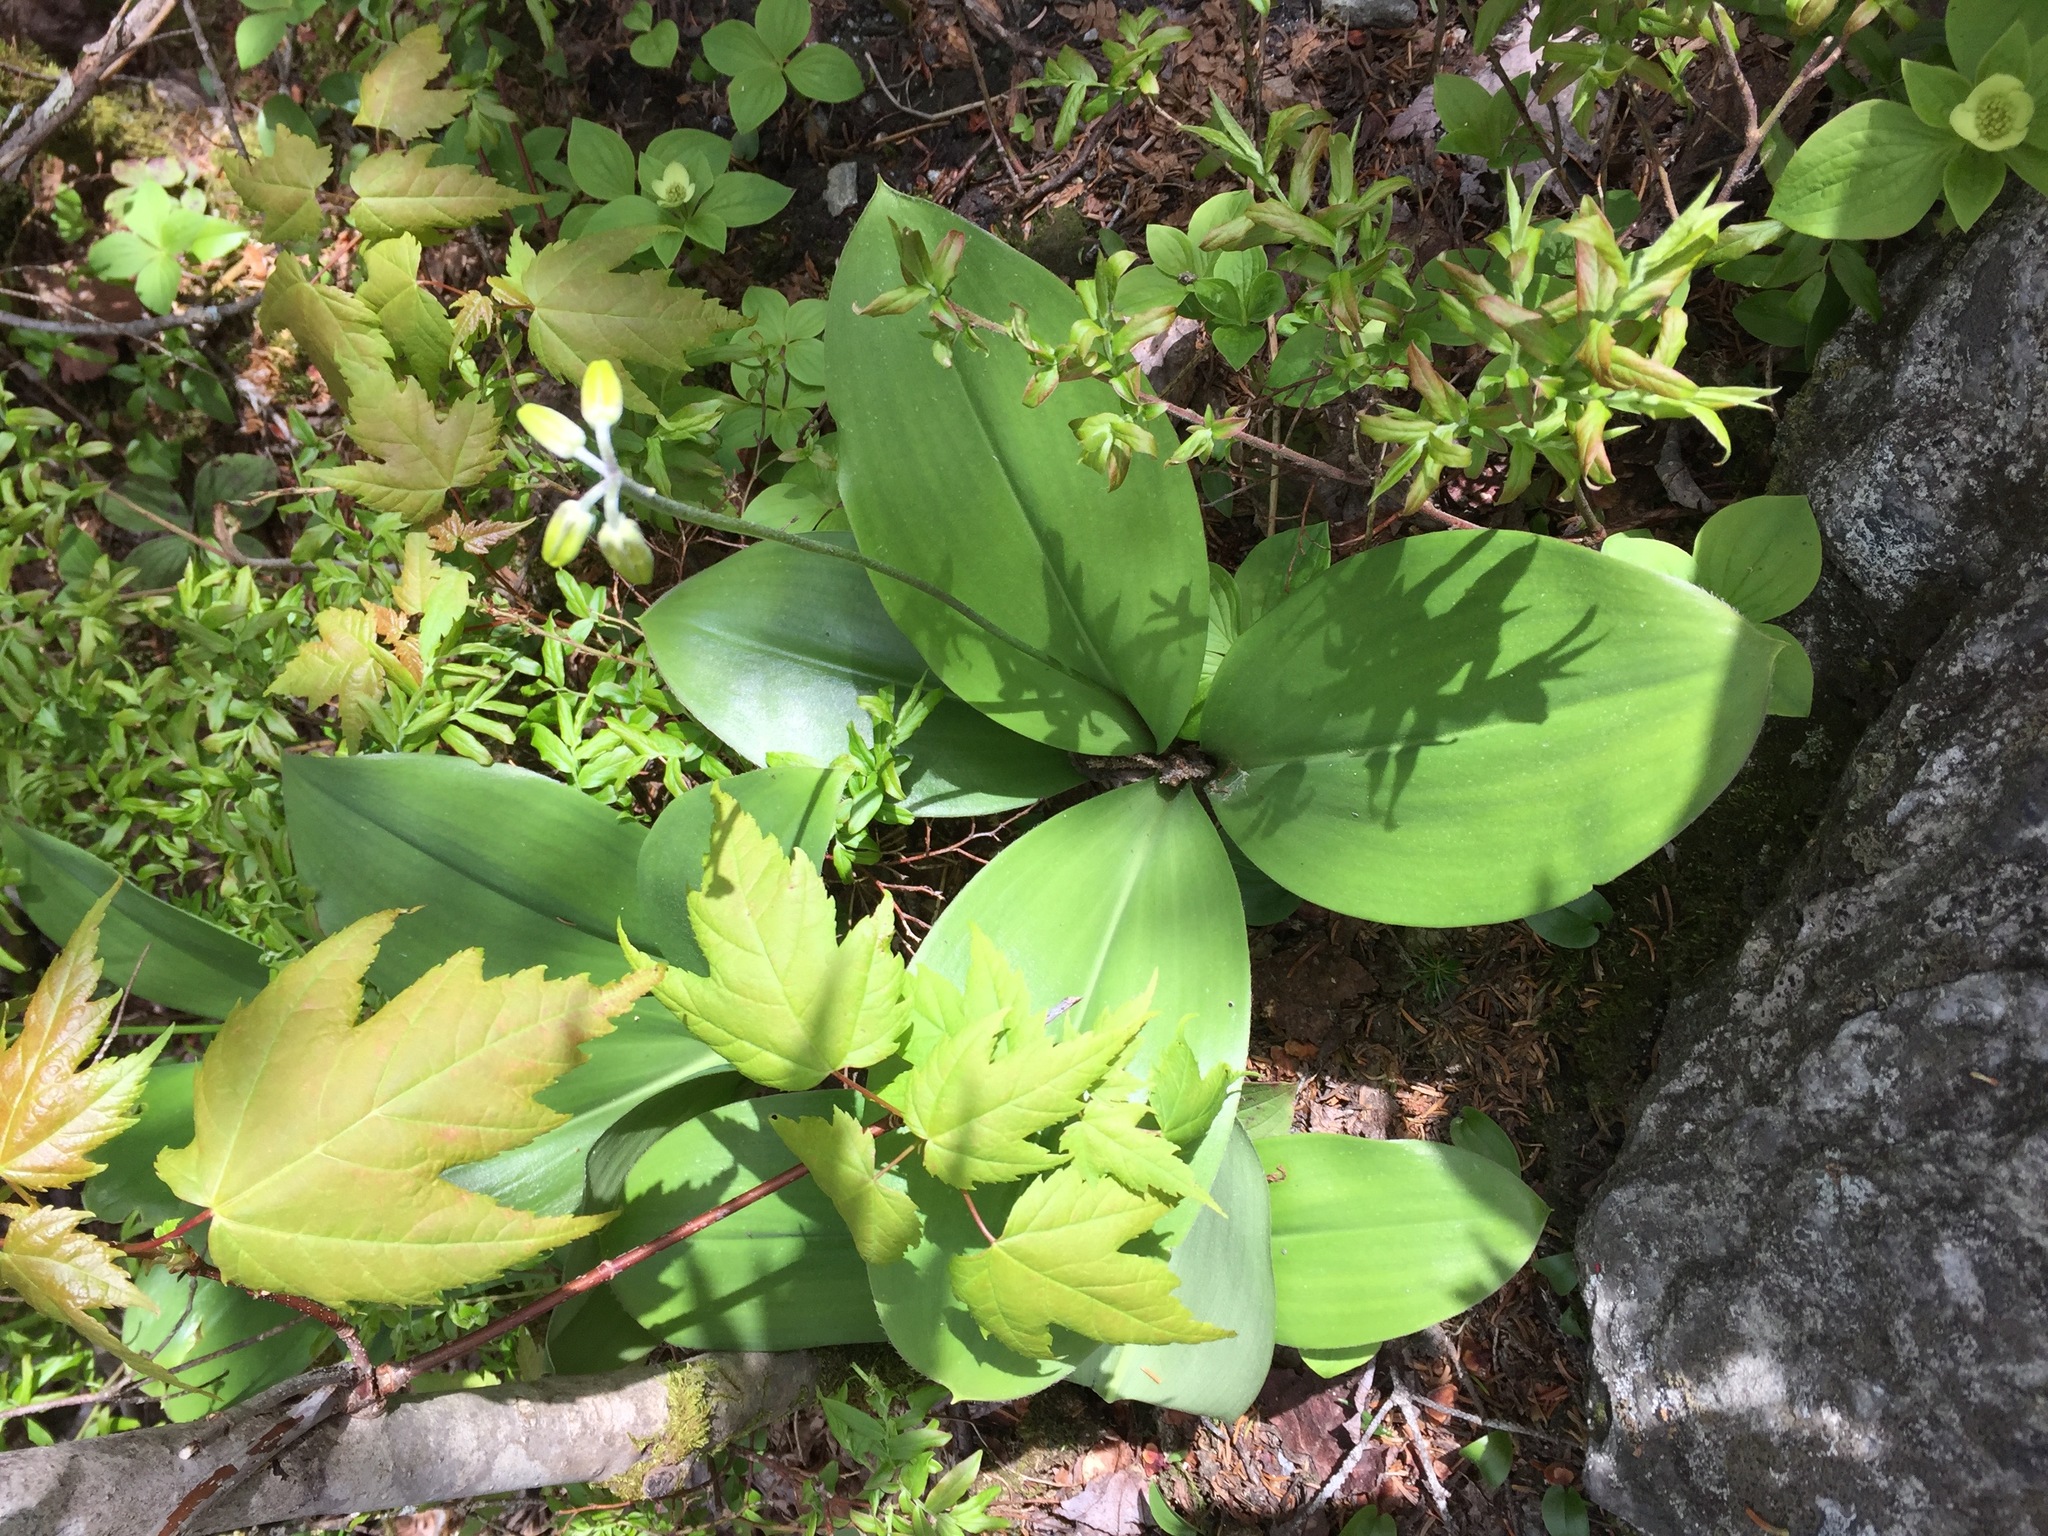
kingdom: Plantae
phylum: Tracheophyta
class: Liliopsida
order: Liliales
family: Liliaceae
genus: Clintonia
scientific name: Clintonia borealis
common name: Yellow clintonia
